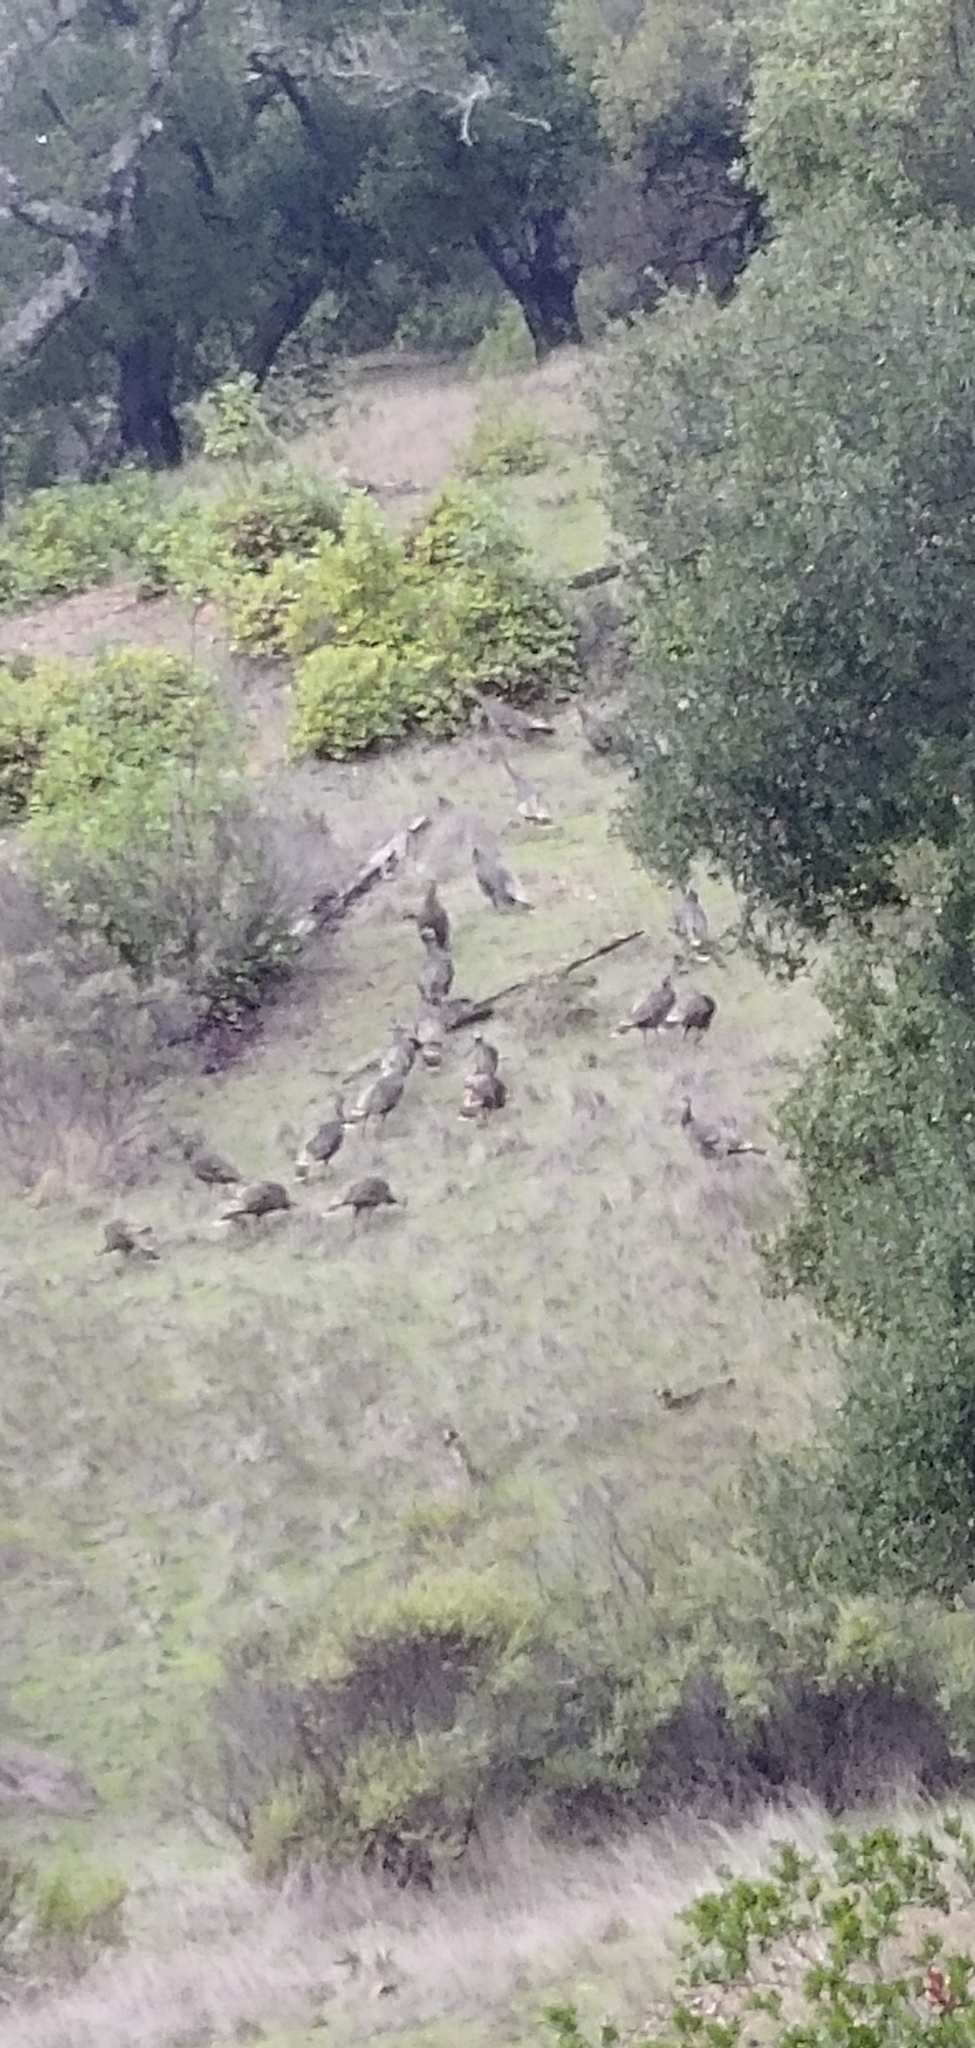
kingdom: Animalia
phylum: Chordata
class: Aves
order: Galliformes
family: Phasianidae
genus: Meleagris
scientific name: Meleagris gallopavo
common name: Wild turkey
